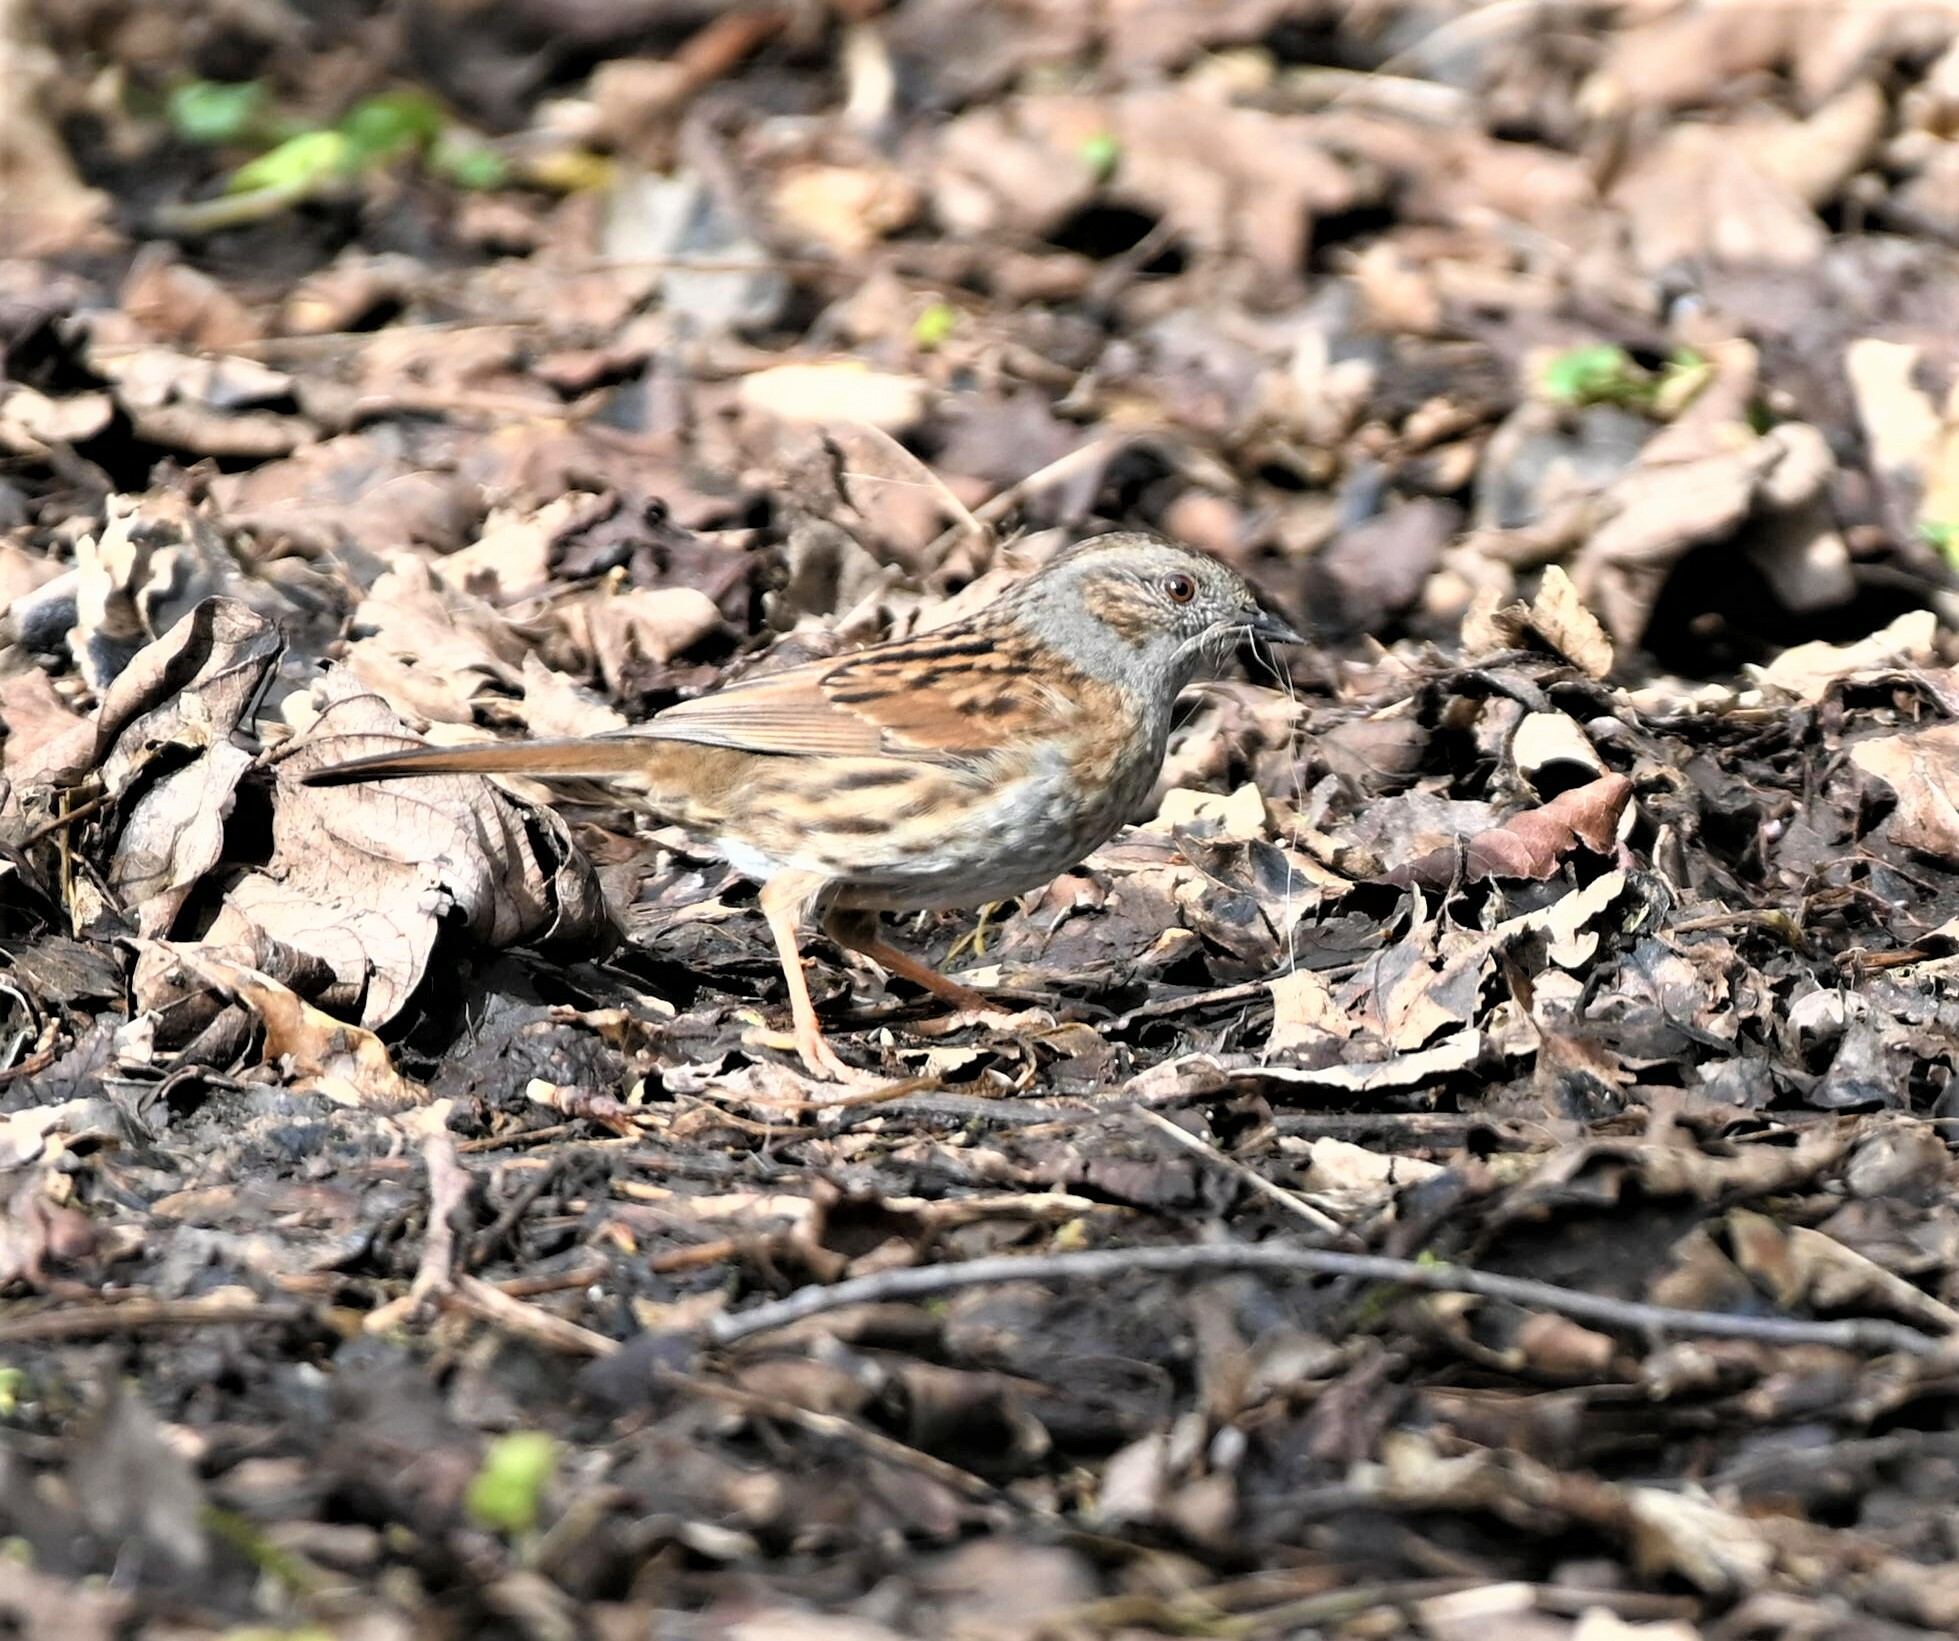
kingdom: Animalia
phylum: Chordata
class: Aves
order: Passeriformes
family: Prunellidae
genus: Prunella
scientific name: Prunella modularis
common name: Dunnock
